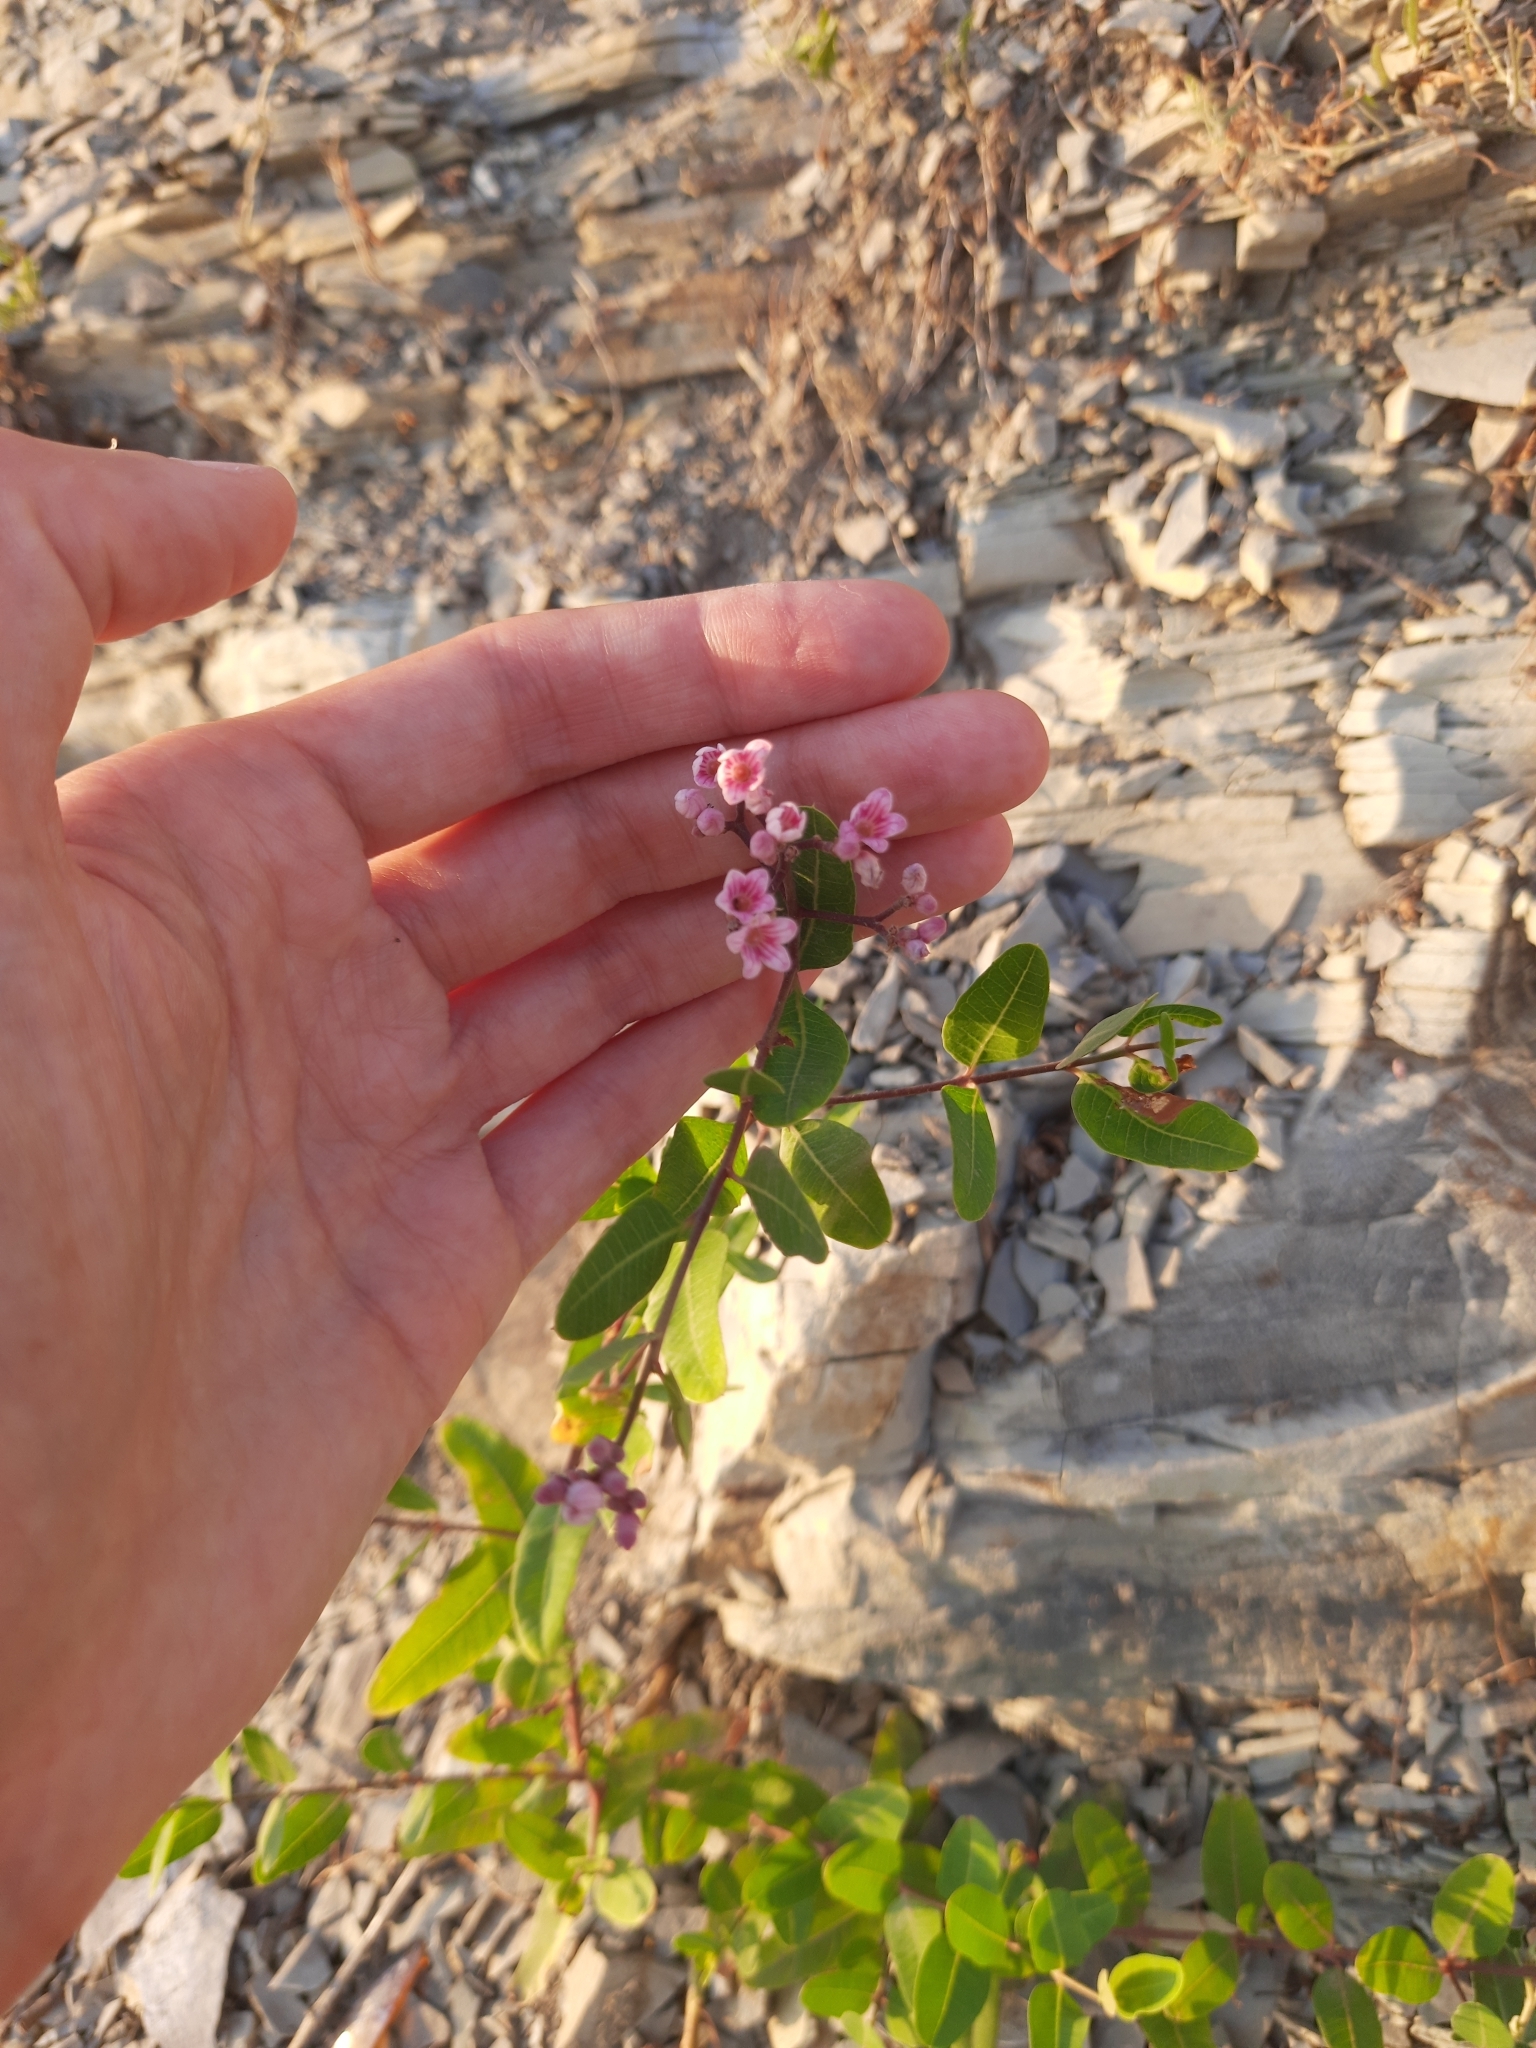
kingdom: Plantae
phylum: Tracheophyta
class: Magnoliopsida
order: Gentianales
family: Apocynaceae
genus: Poacynum
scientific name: Poacynum venetum
